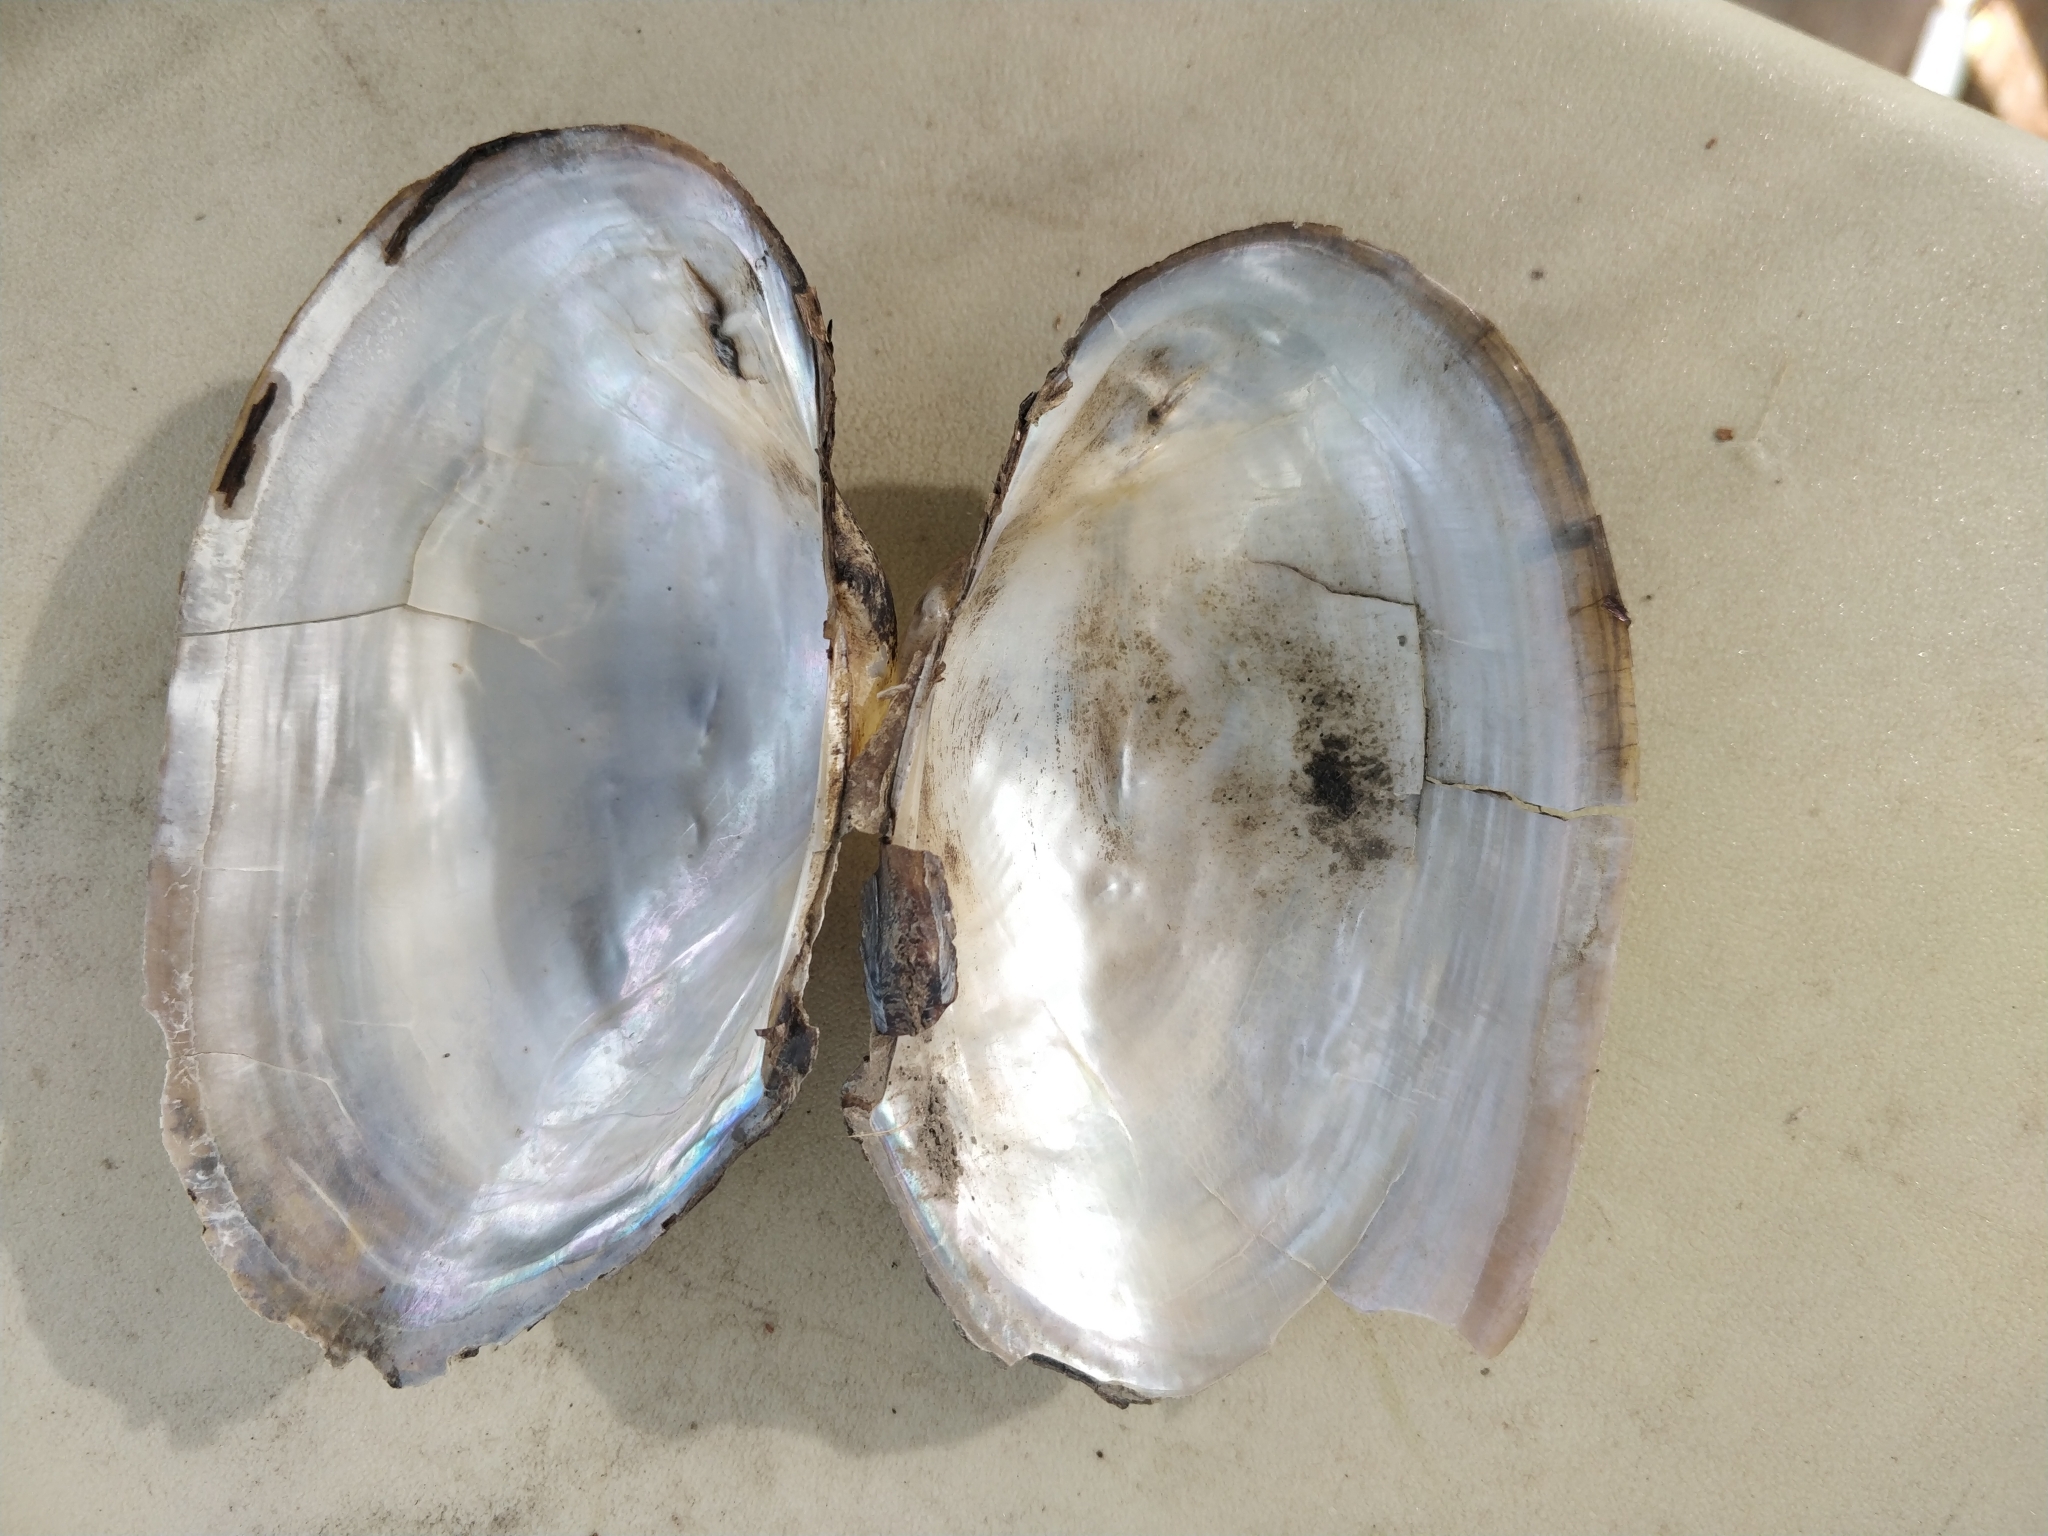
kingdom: Animalia
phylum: Mollusca
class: Bivalvia
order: Unionida
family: Unionidae
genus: Pyganodon
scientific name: Pyganodon grandis
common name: Giant floater
